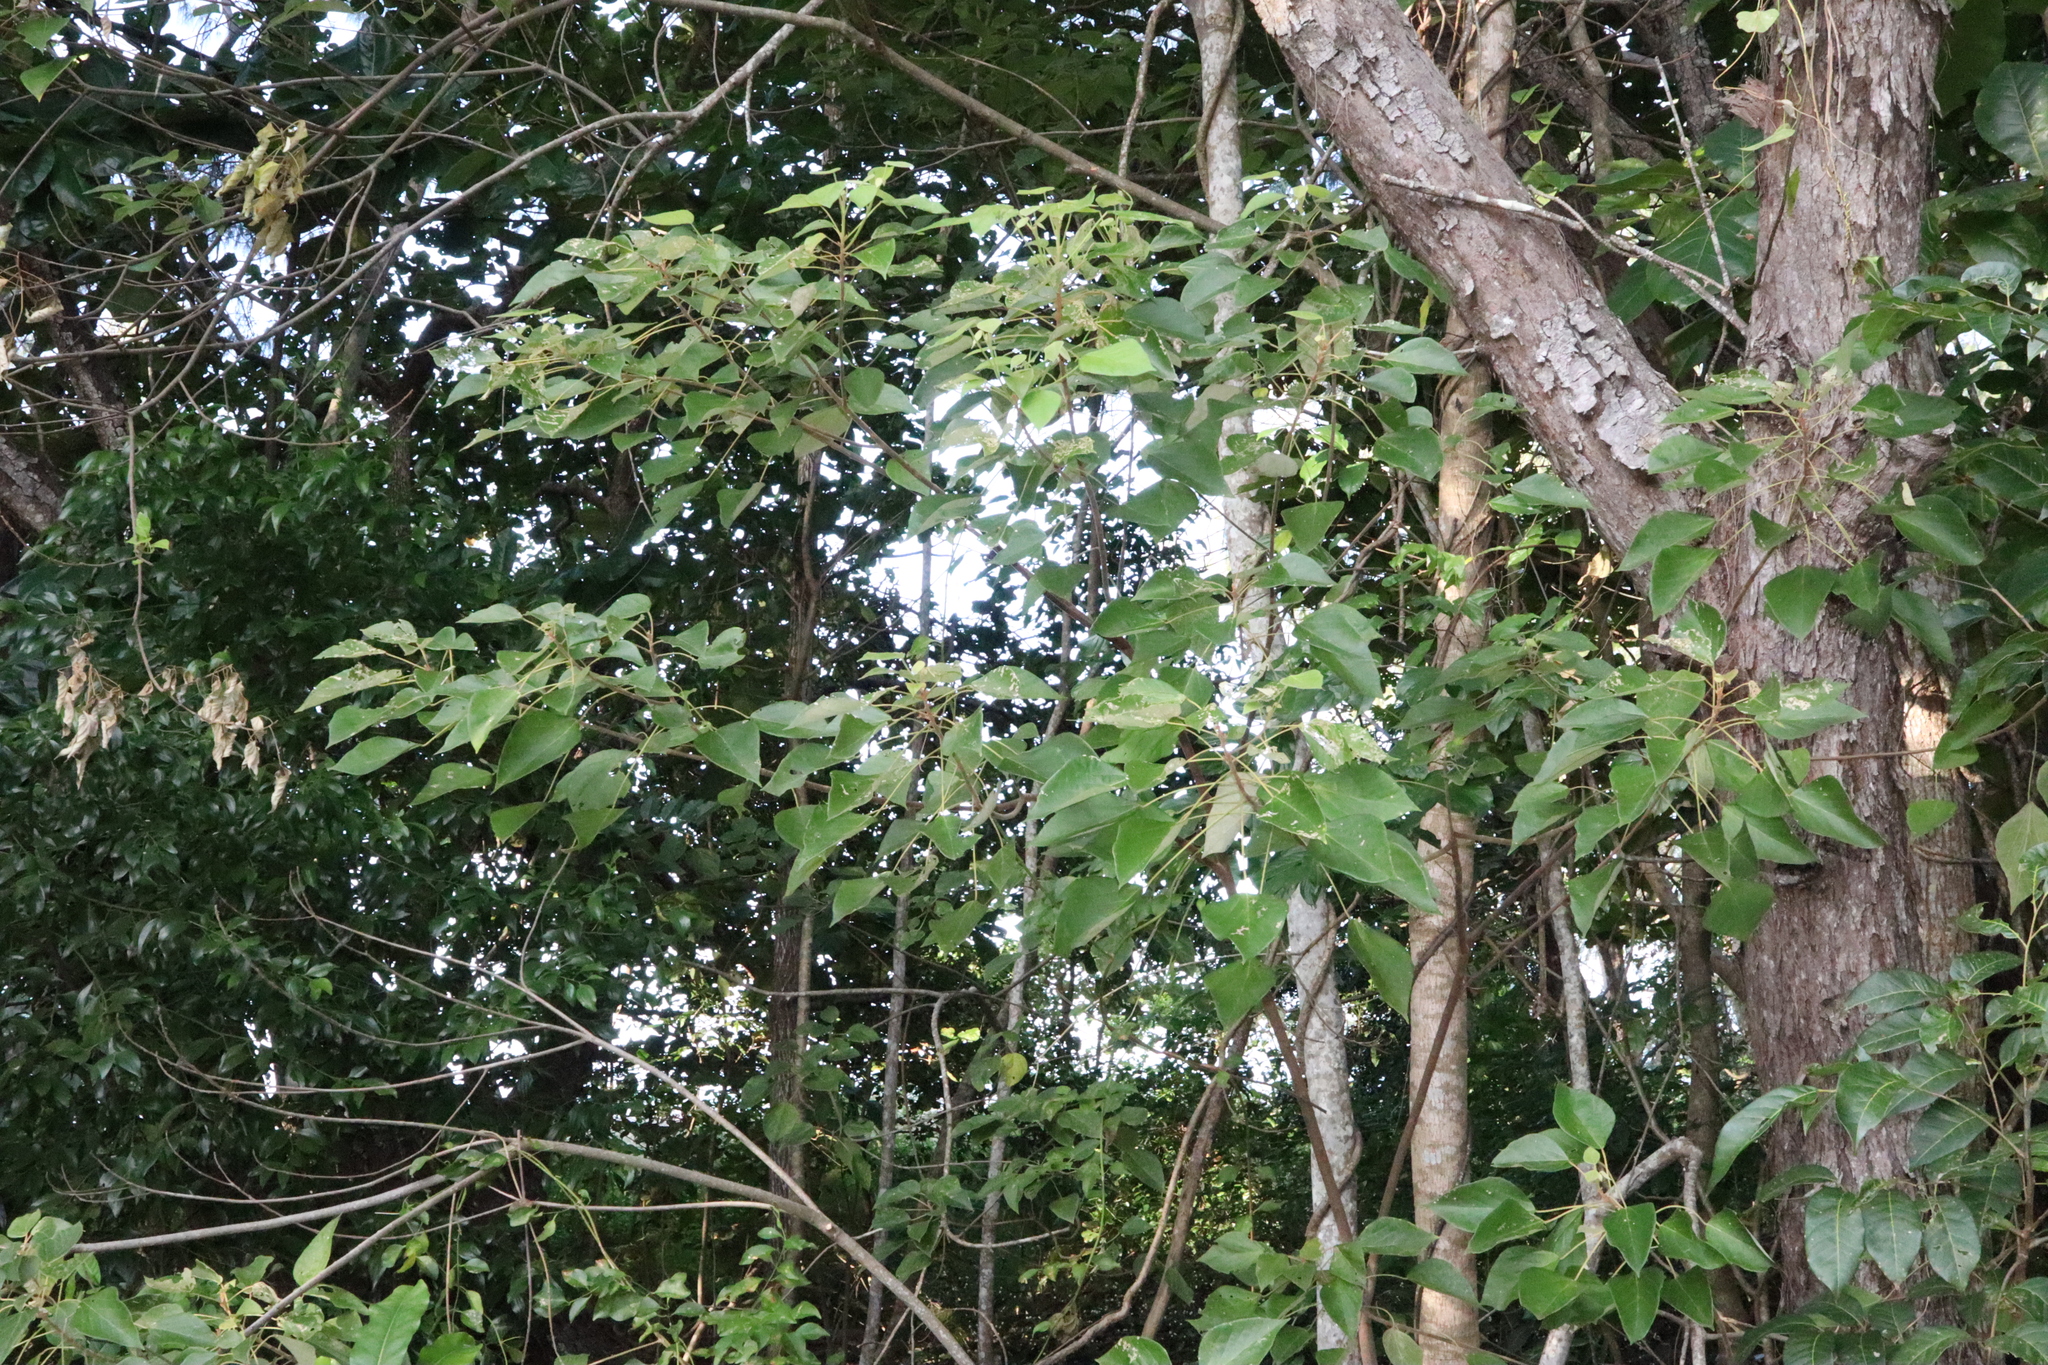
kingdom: Plantae
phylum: Tracheophyta
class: Magnoliopsida
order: Malpighiales
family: Euphorbiaceae
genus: Mallotus
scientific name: Mallotus nesophilus
